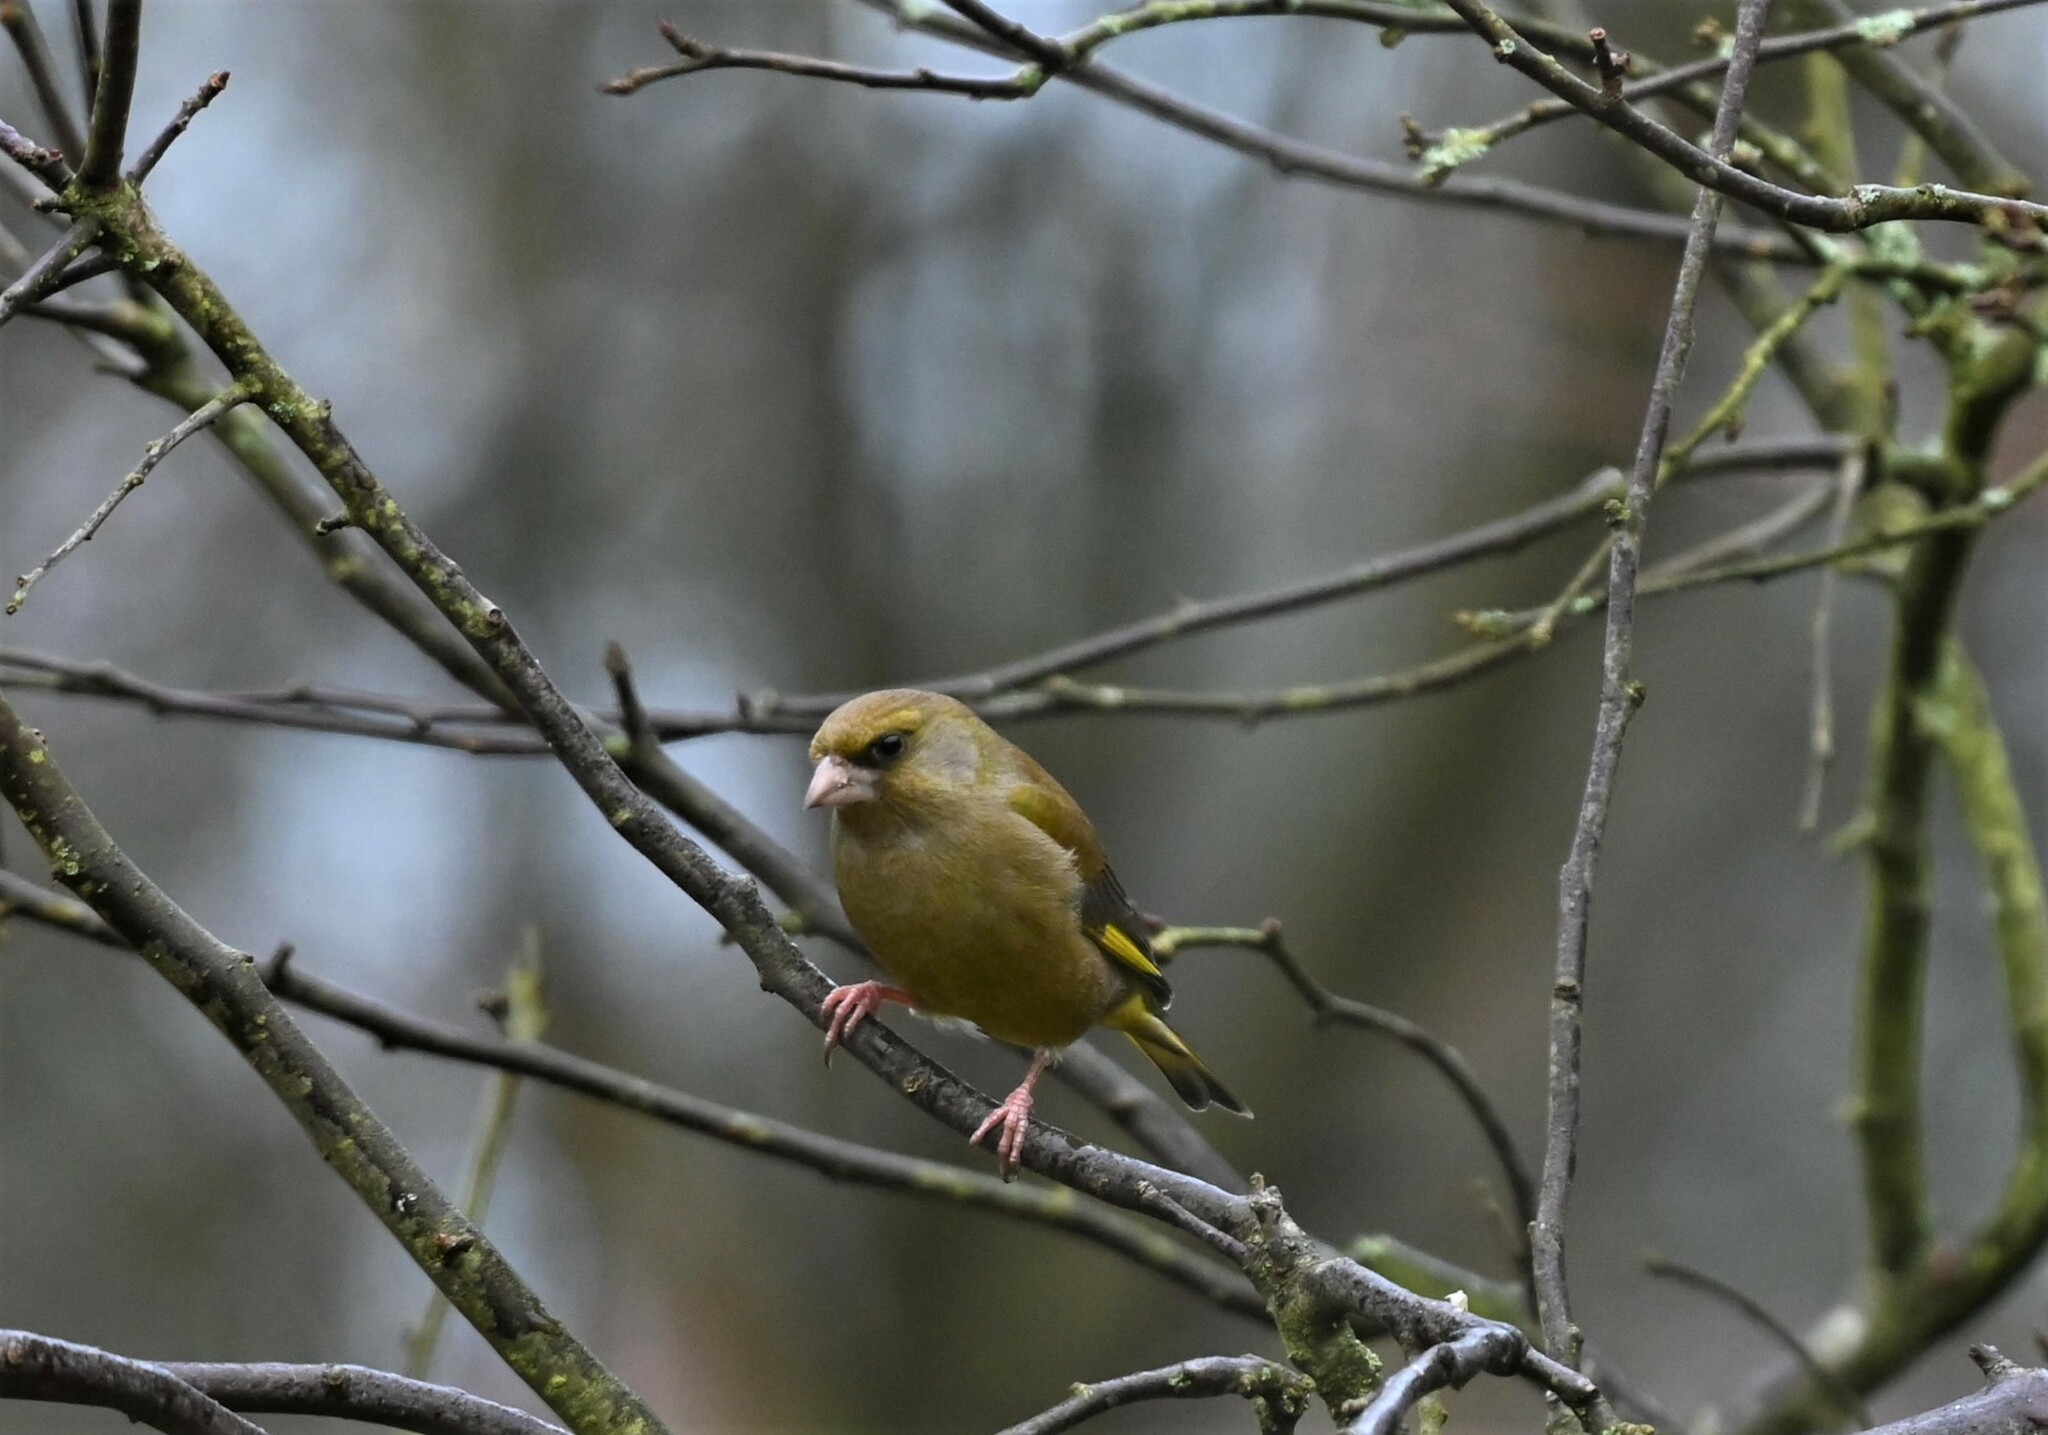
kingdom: Plantae
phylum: Tracheophyta
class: Liliopsida
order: Poales
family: Poaceae
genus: Chloris
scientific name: Chloris chloris
